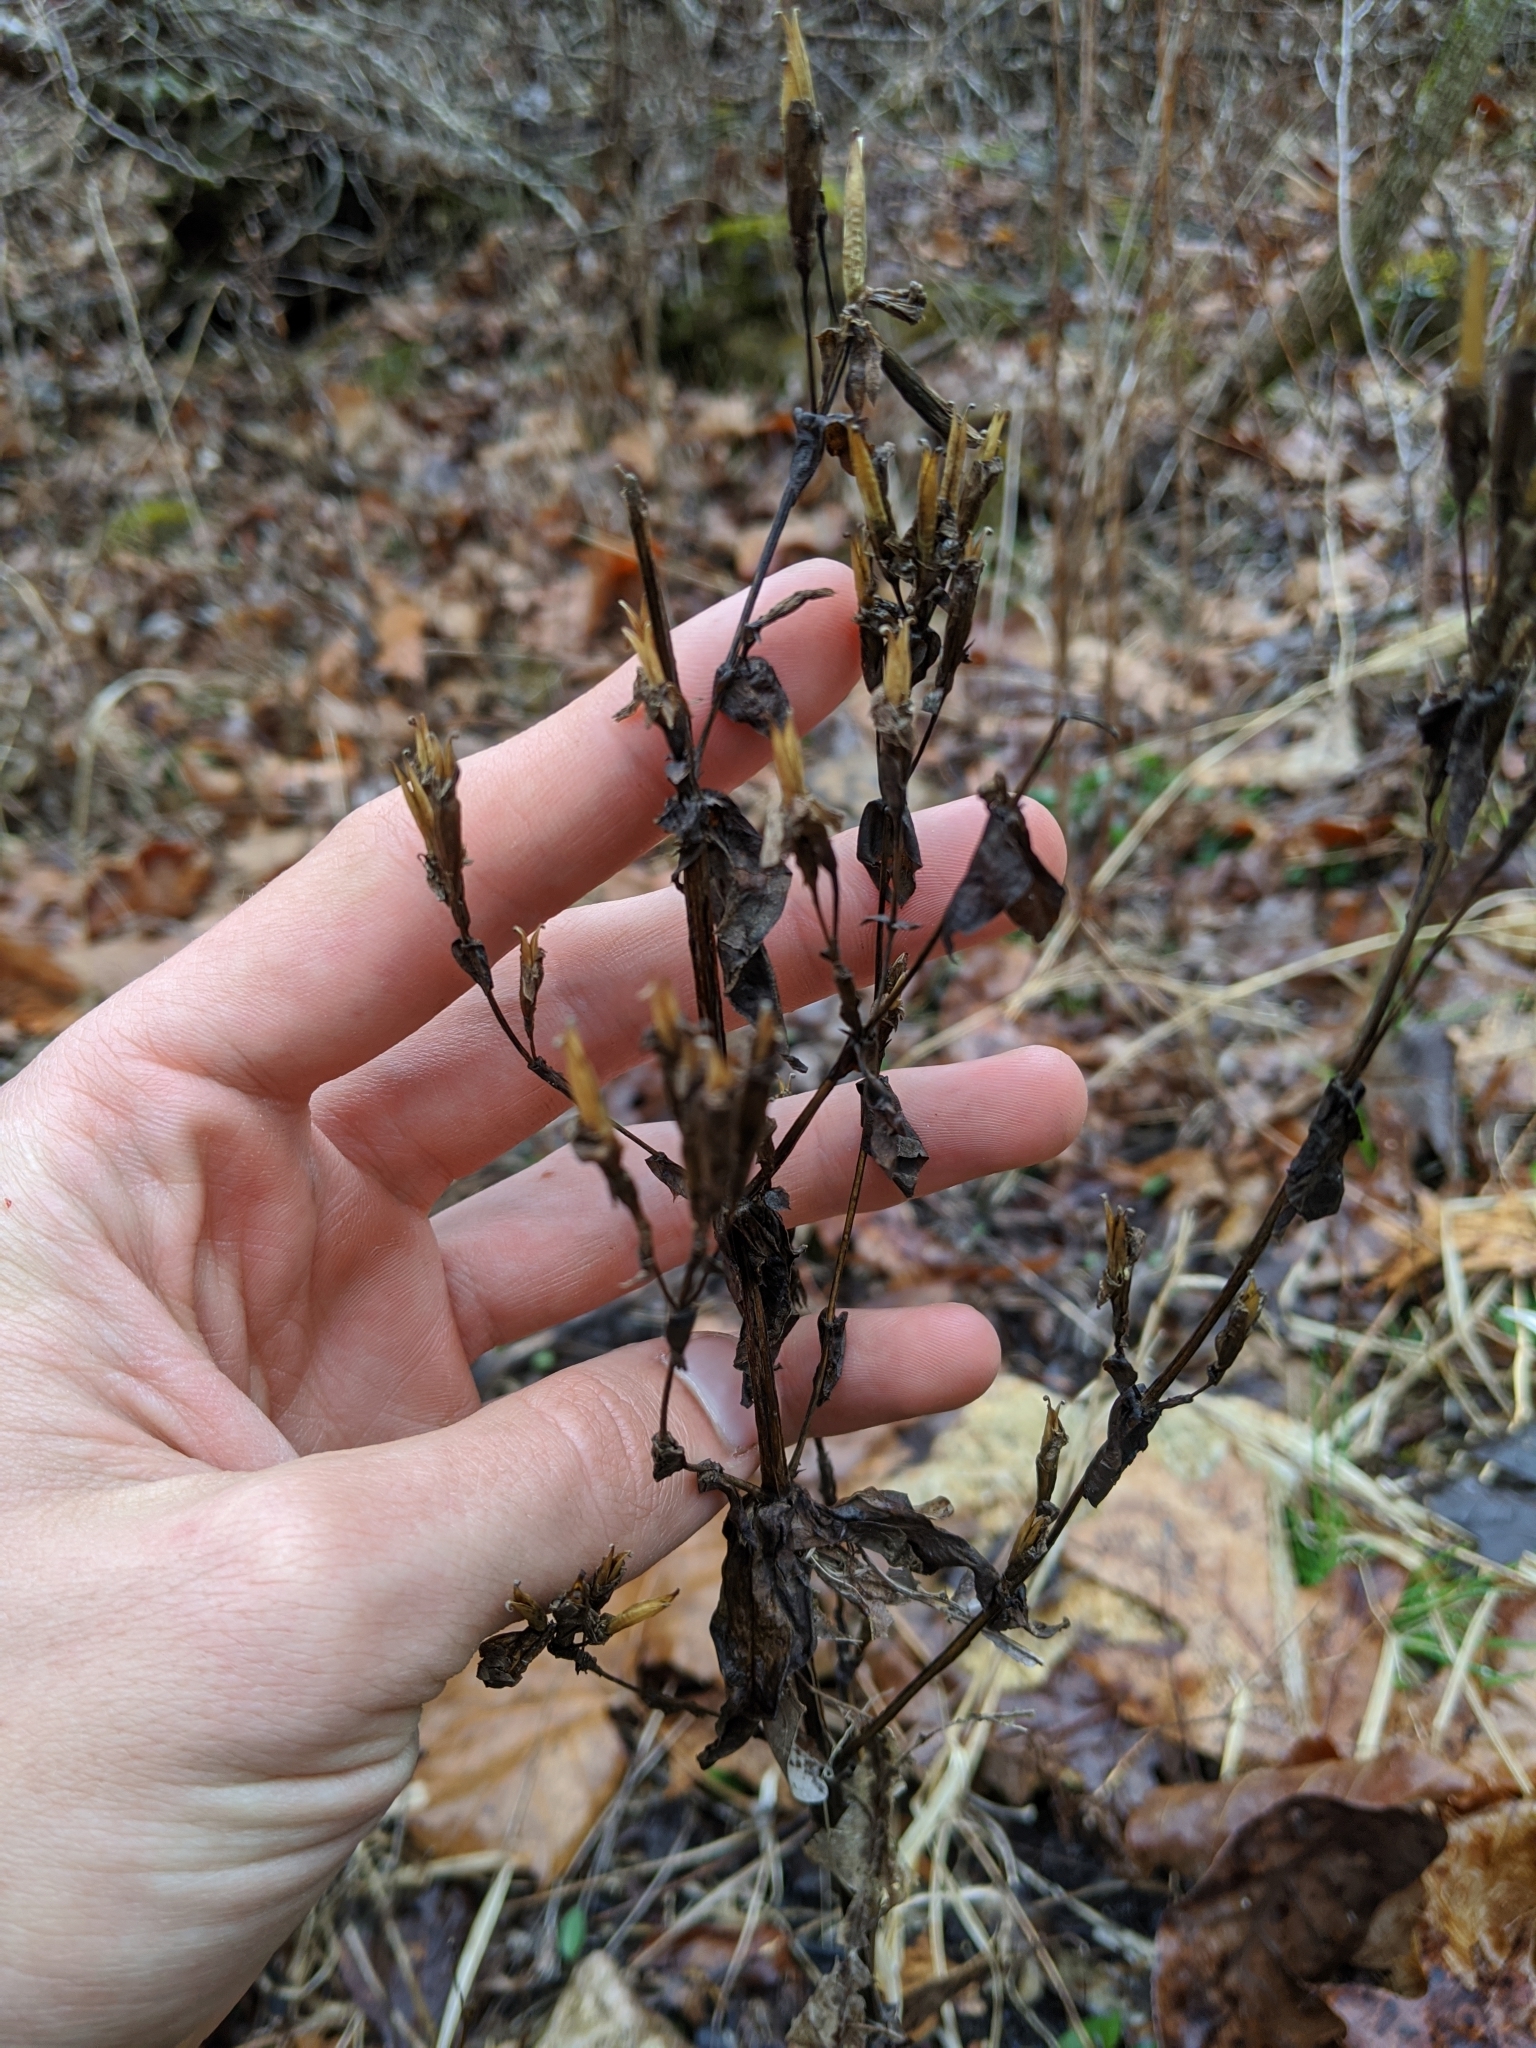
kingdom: Plantae
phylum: Tracheophyta
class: Magnoliopsida
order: Gentianales
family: Gentianaceae
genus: Gentianella
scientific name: Gentianella quinquefolia
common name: Agueweed
